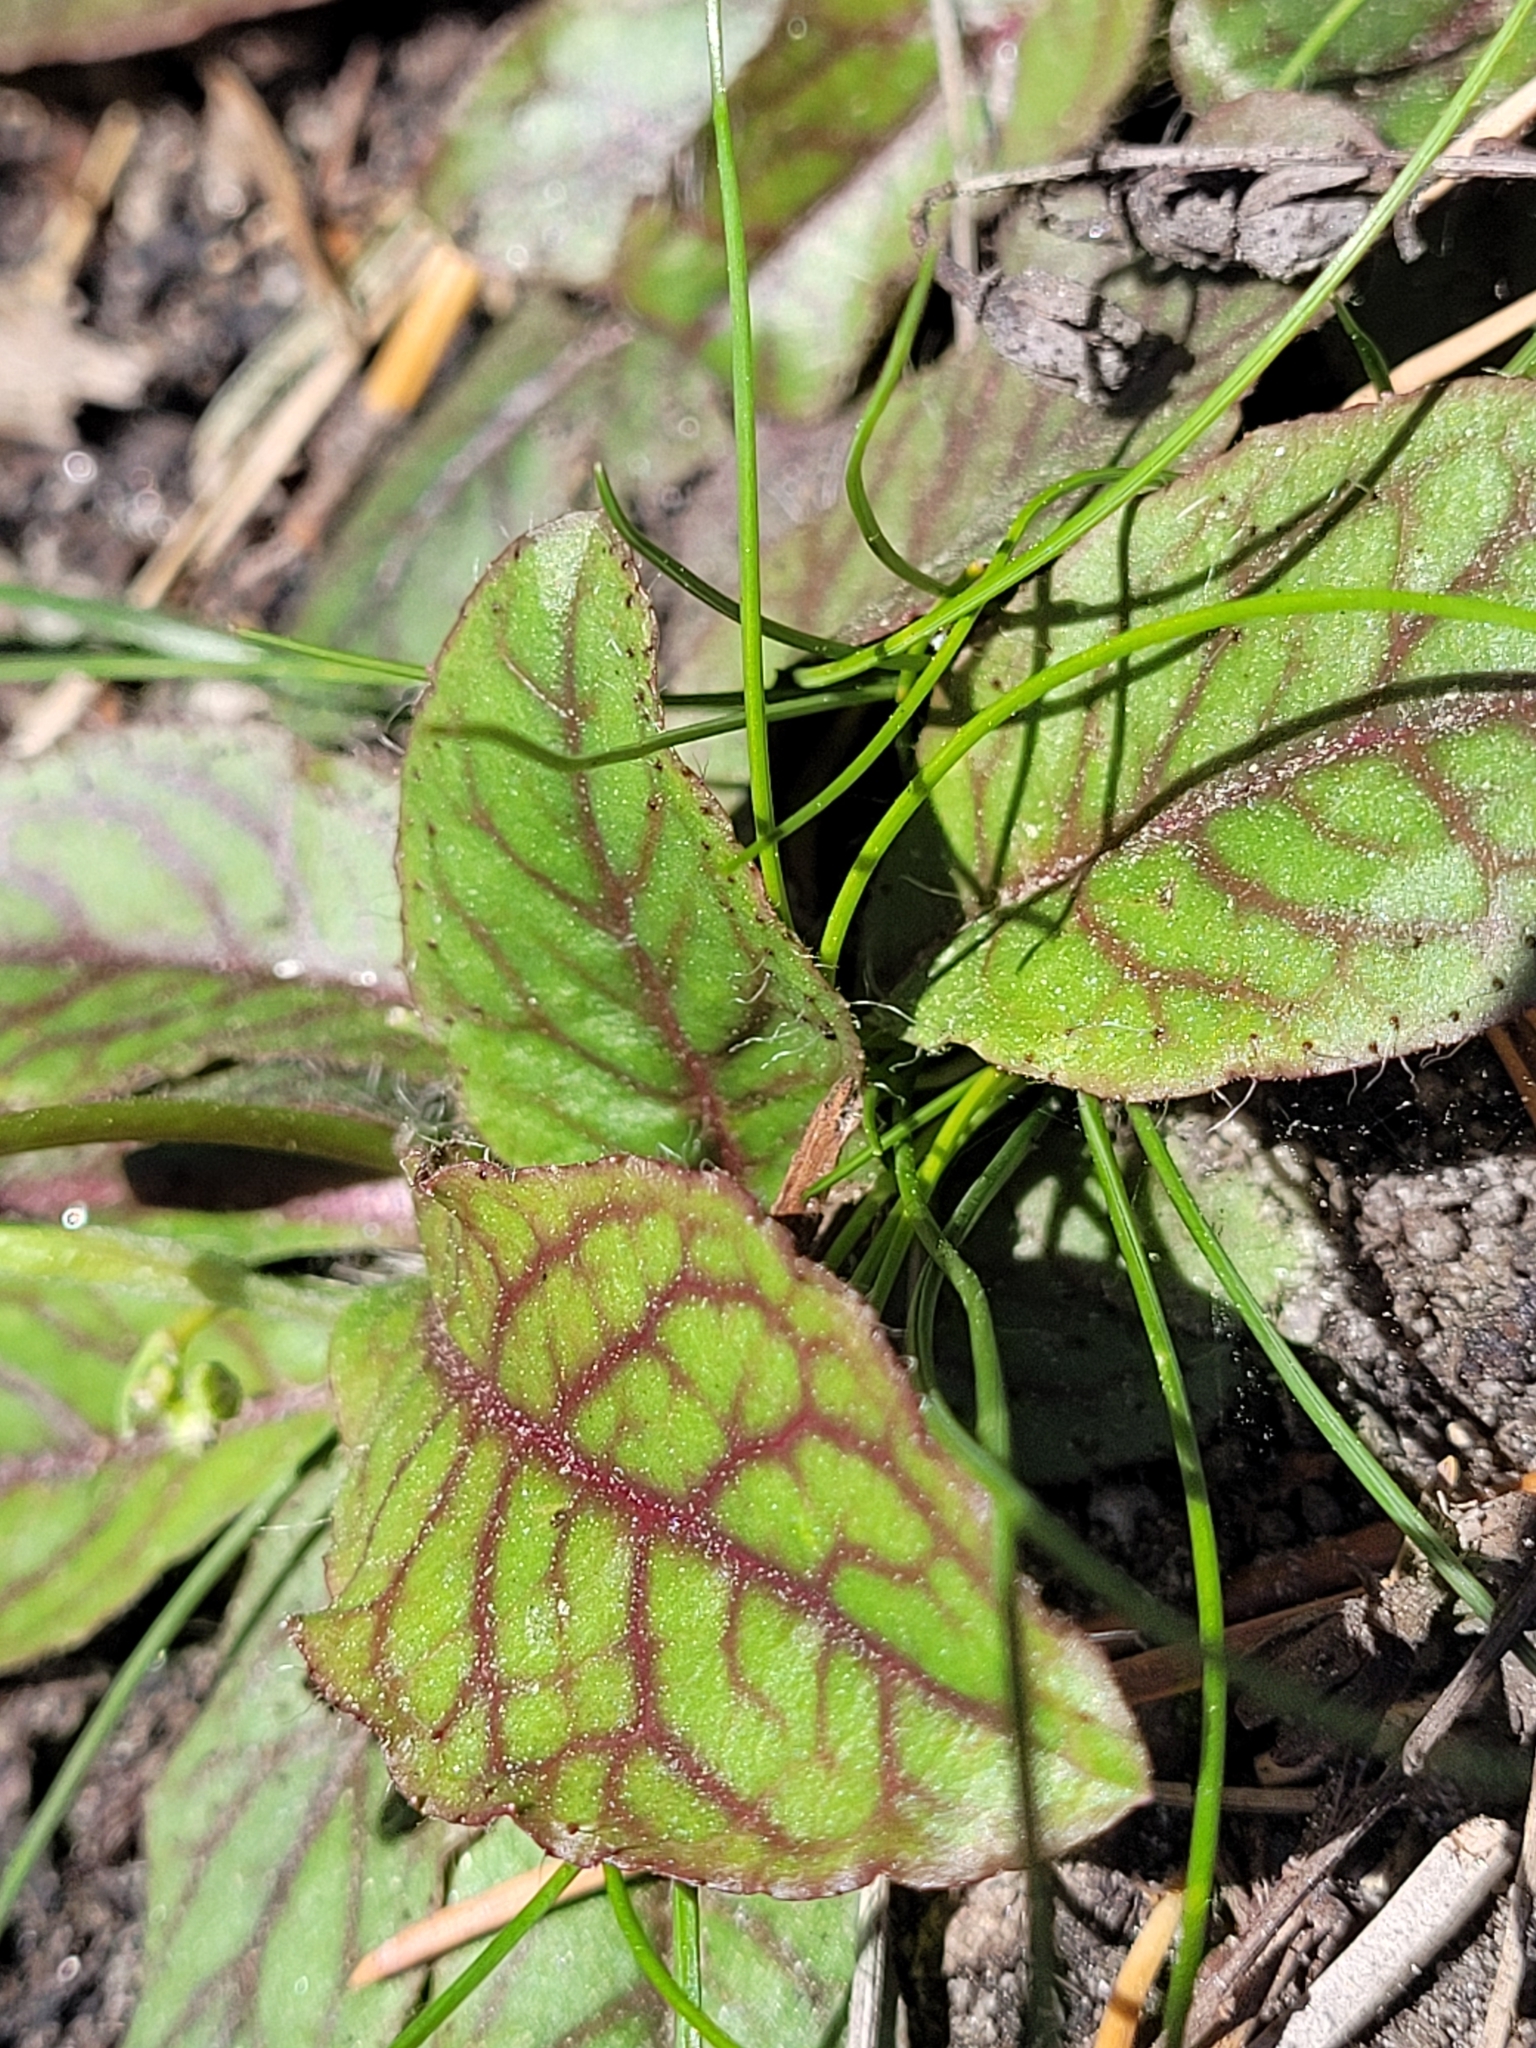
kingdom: Plantae
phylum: Tracheophyta
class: Magnoliopsida
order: Asterales
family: Asteraceae
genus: Hieracium
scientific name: Hieracium venosum
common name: Rattlesnake hawkweed
